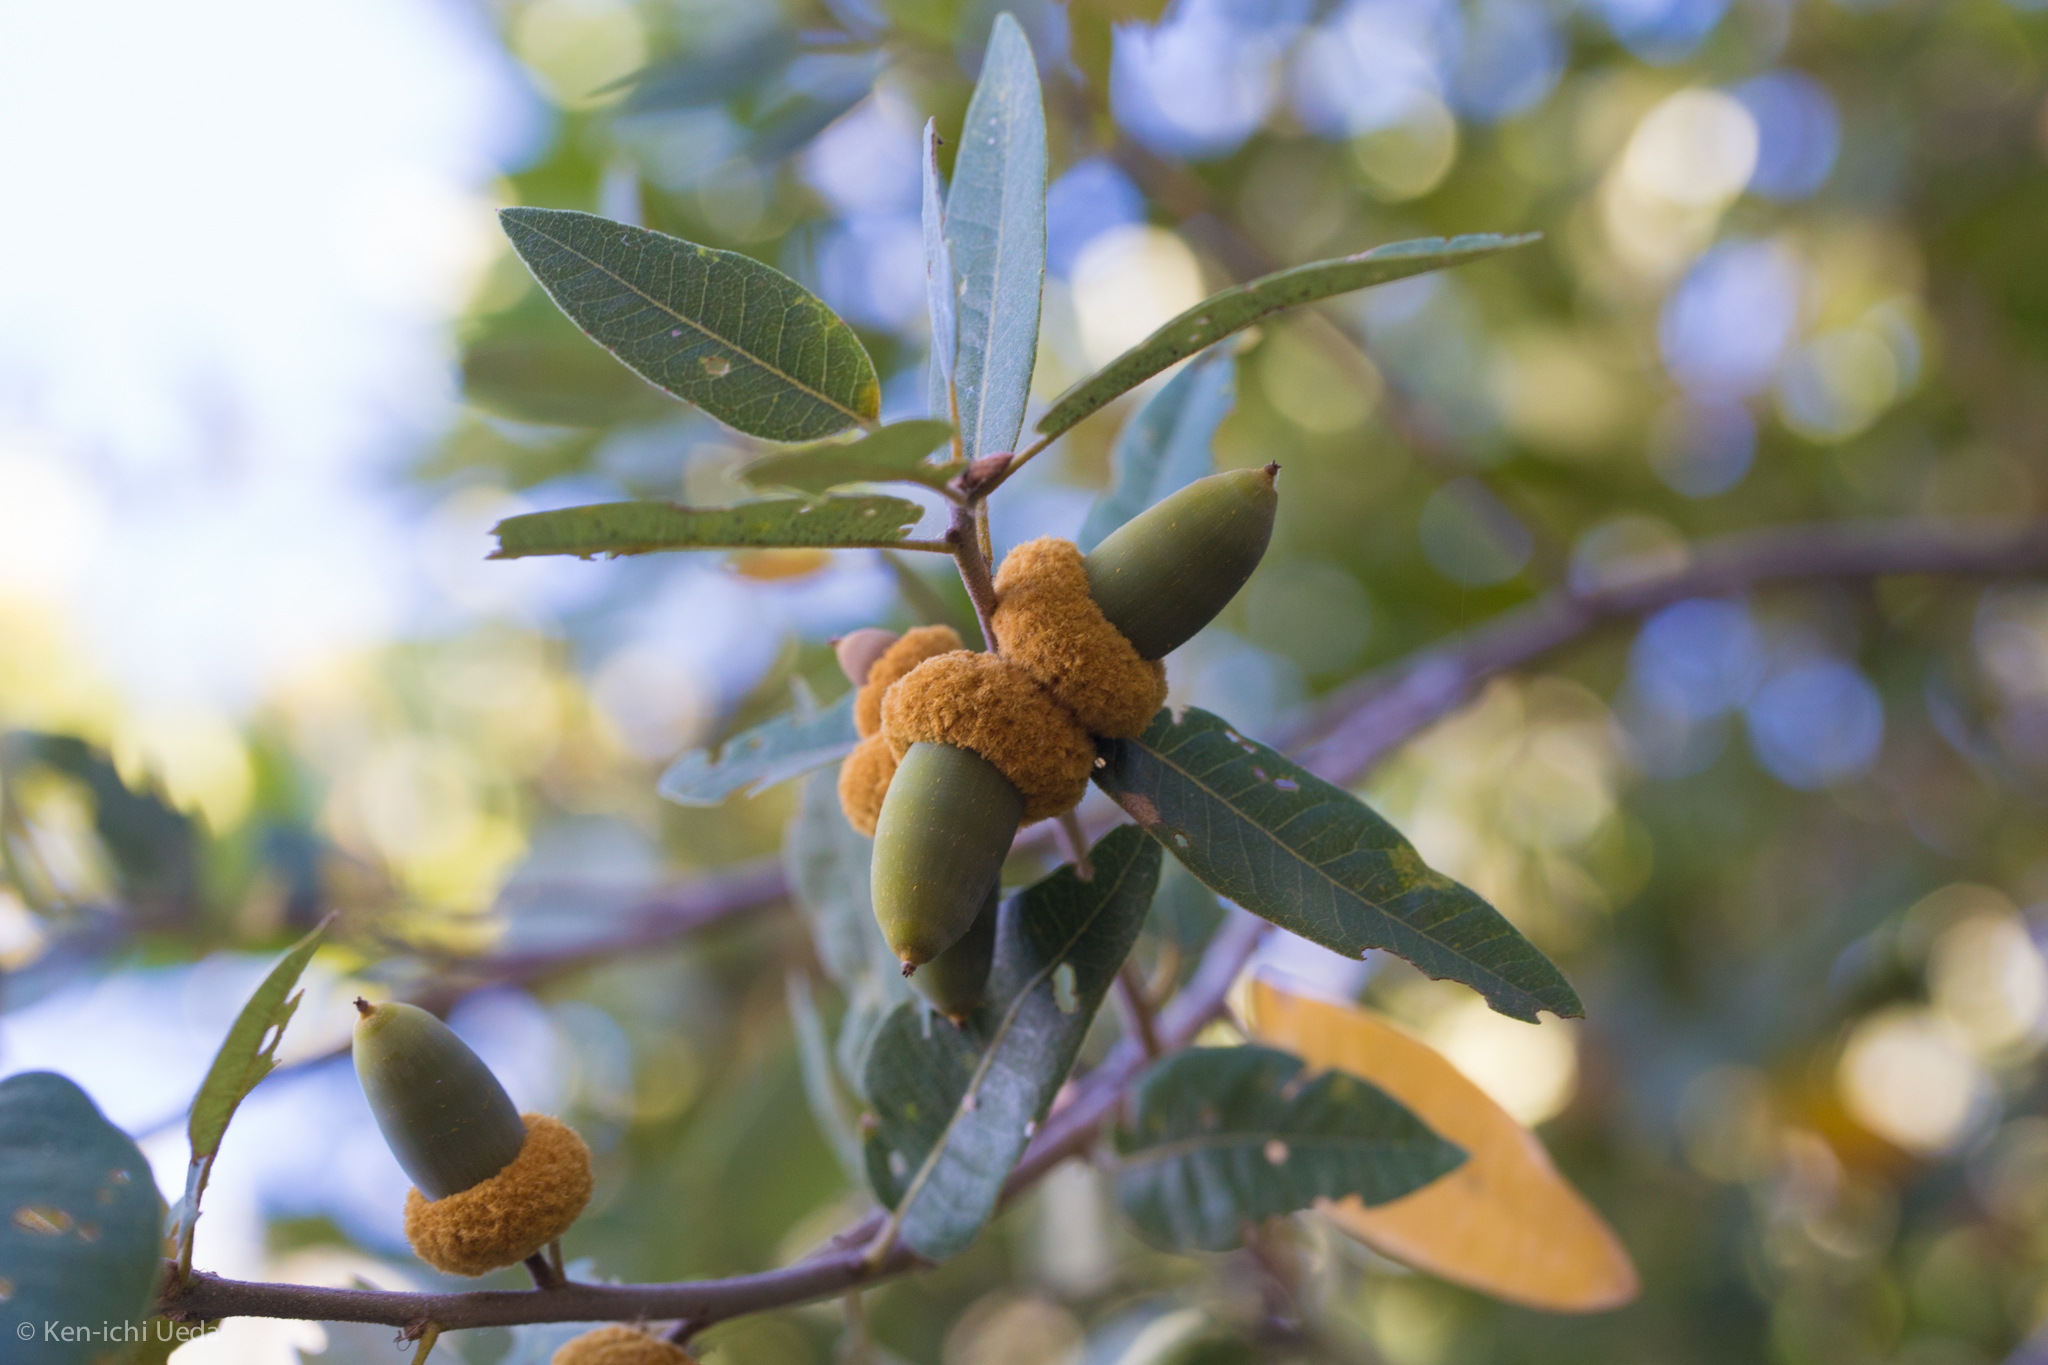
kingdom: Plantae
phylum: Tracheophyta
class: Magnoliopsida
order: Fagales
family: Fagaceae
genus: Quercus
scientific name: Quercus chrysolepis
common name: Canyon live oak
